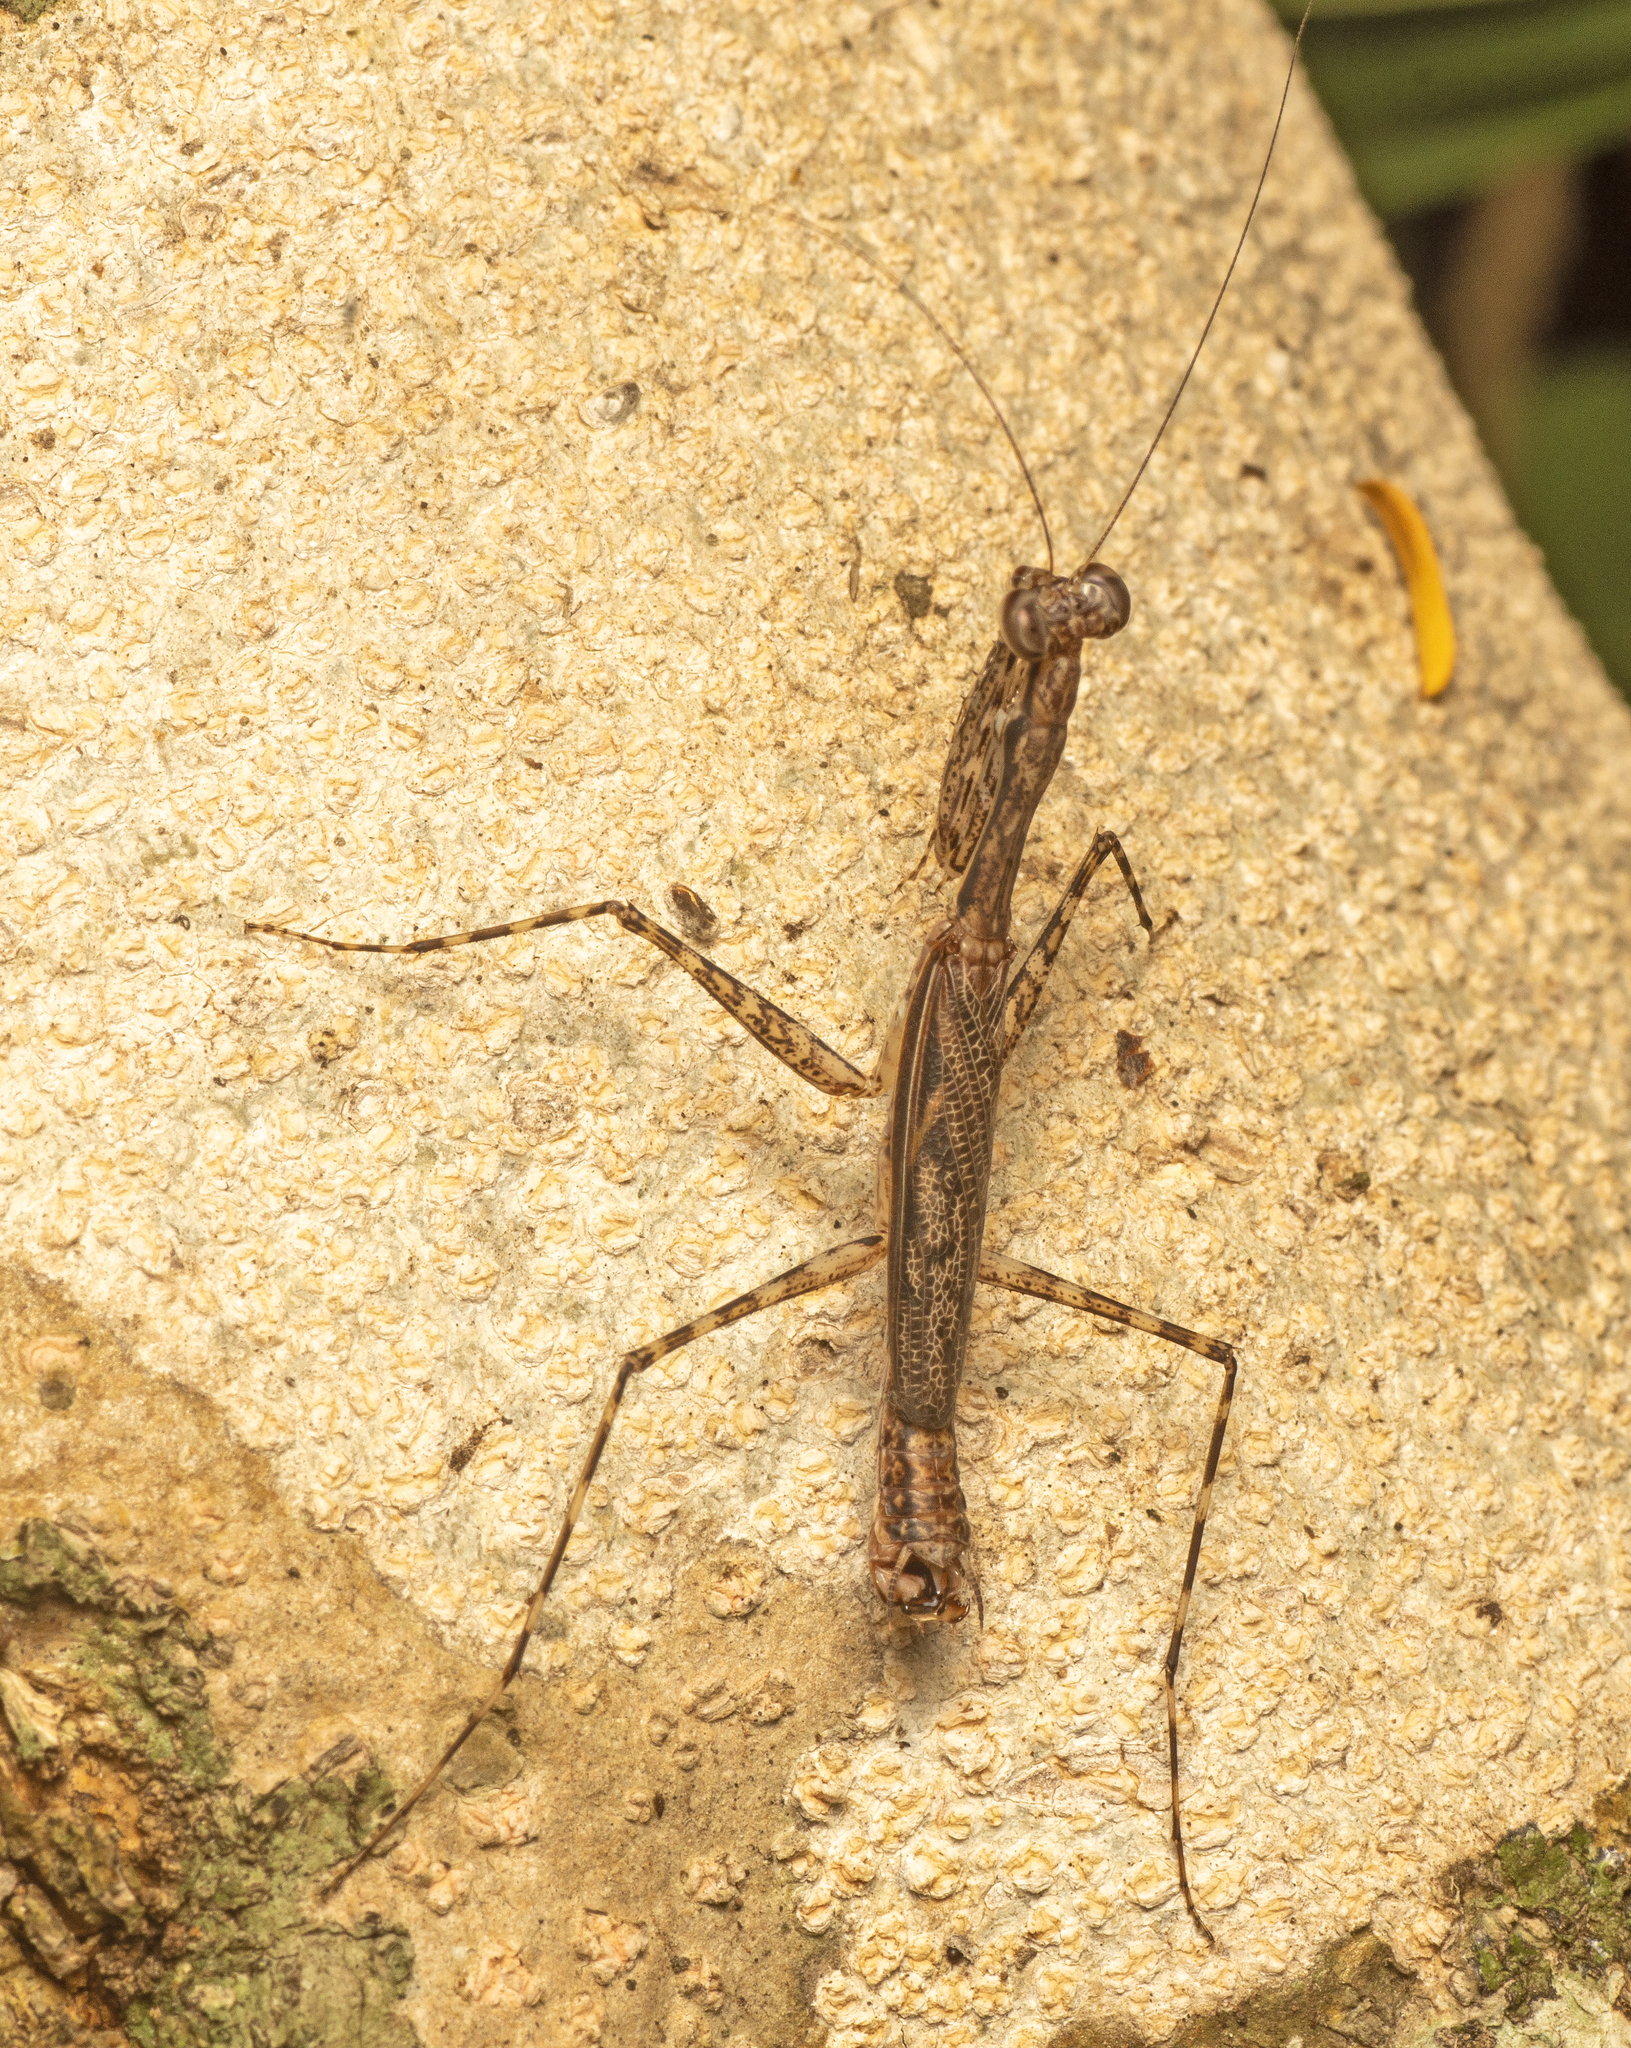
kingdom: Animalia
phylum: Arthropoda
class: Insecta
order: Mantodea
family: Nanomantidae
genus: Ciulfina
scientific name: Ciulfina ianrichardi
